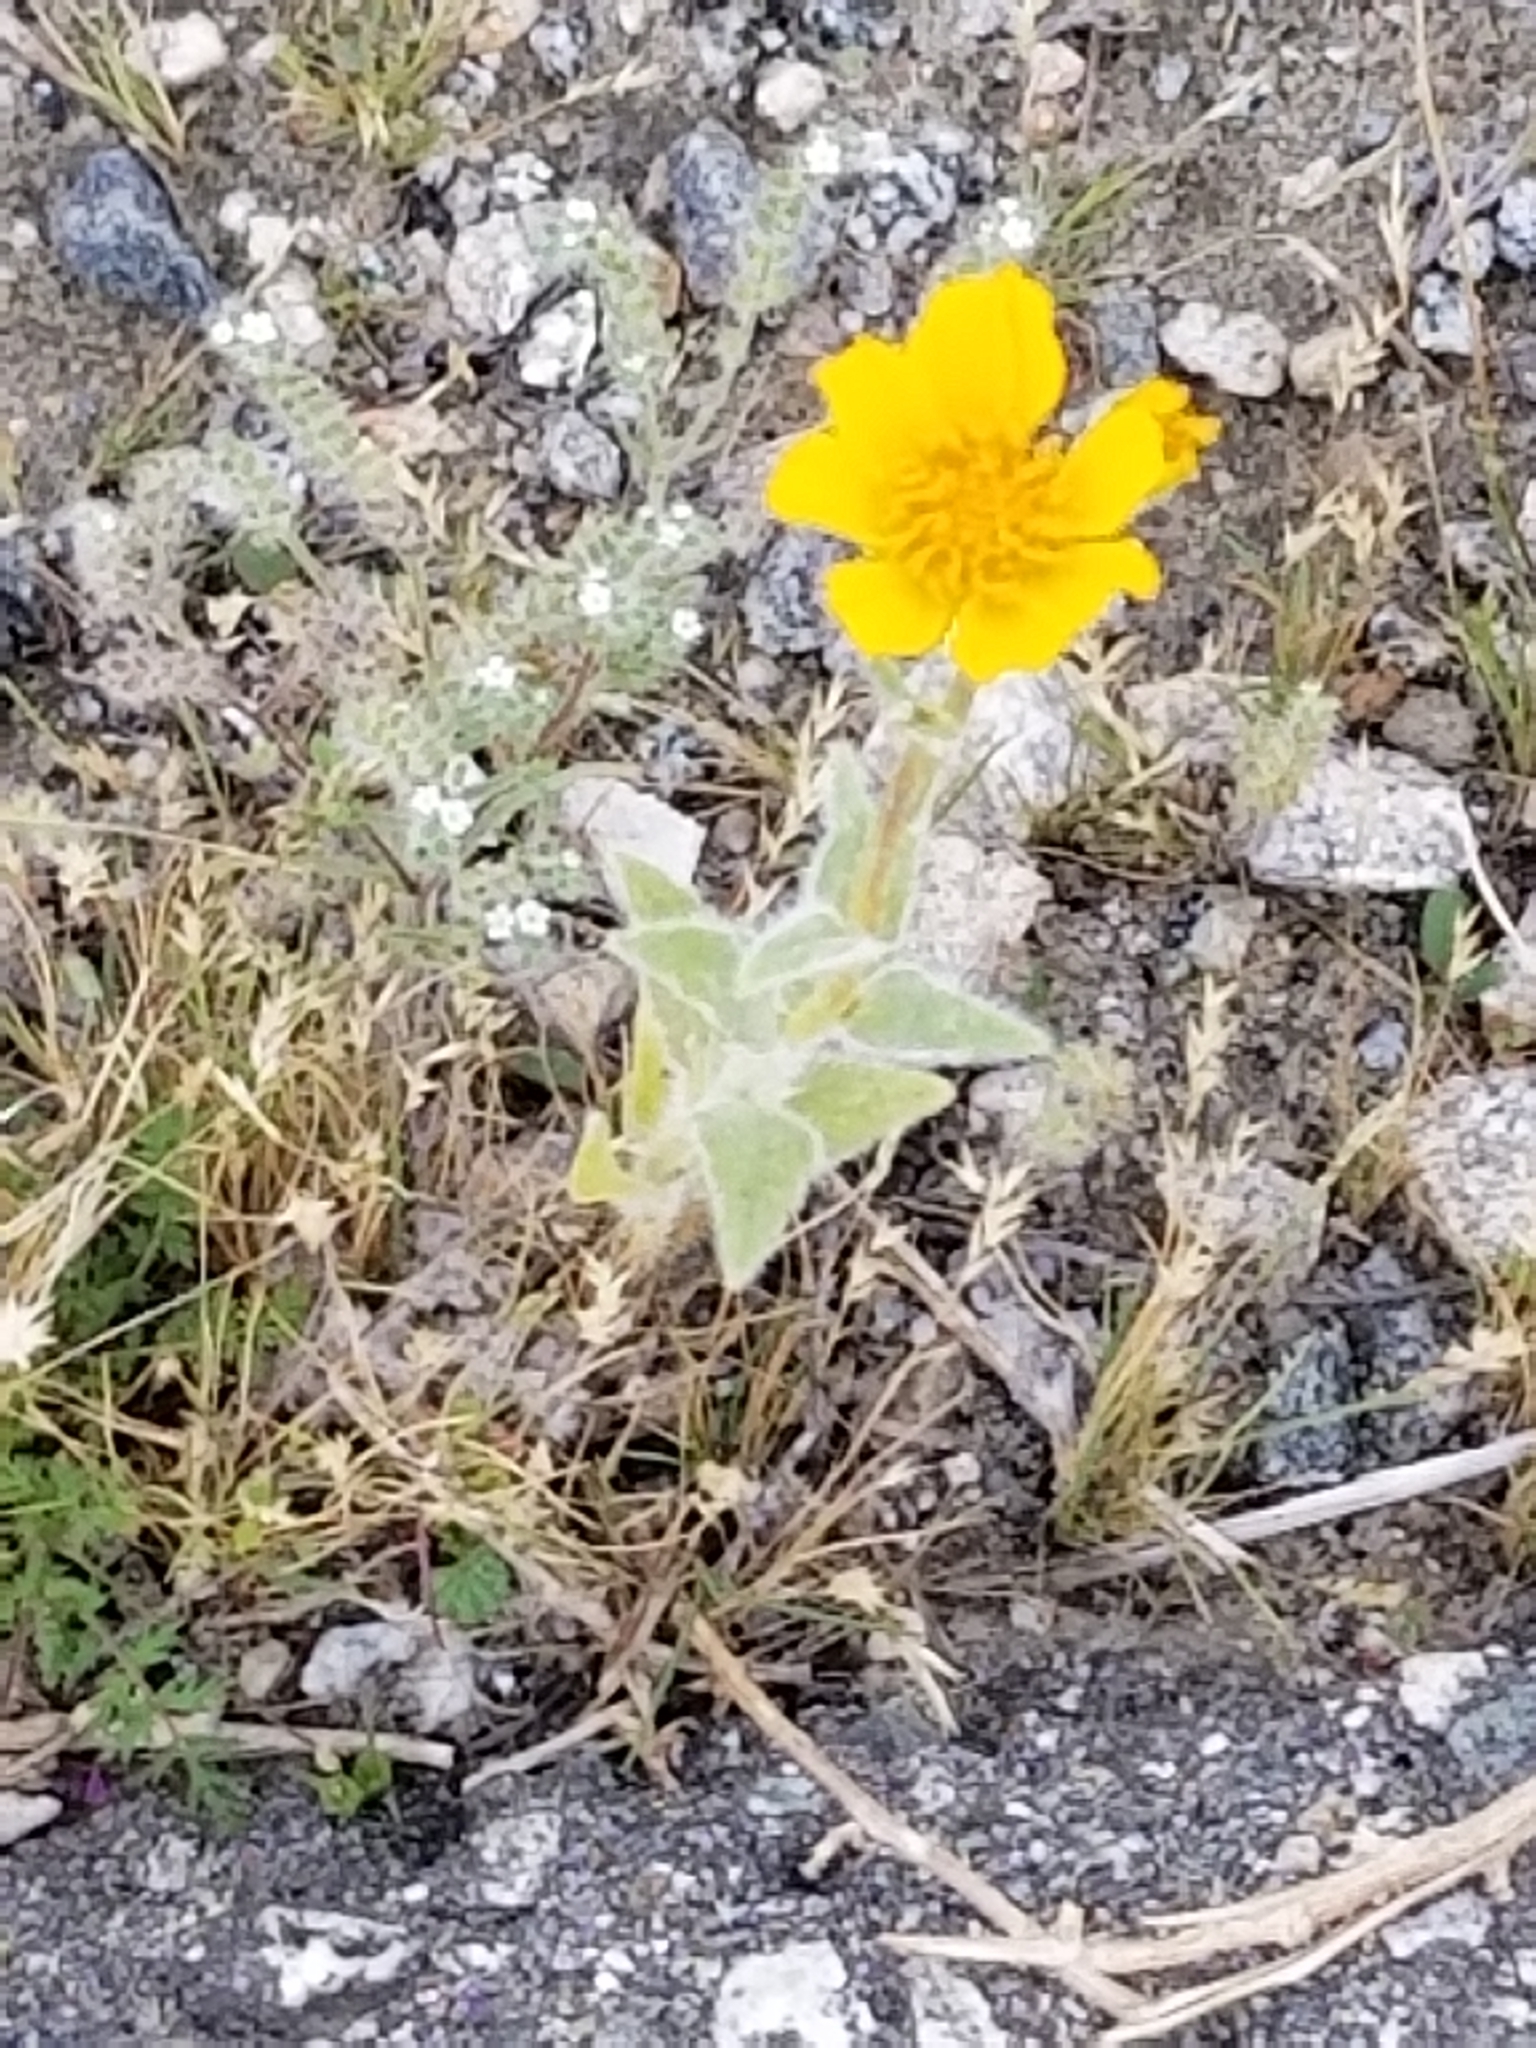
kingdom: Plantae
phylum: Tracheophyta
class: Magnoliopsida
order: Asterales
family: Asteraceae
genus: Geraea
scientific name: Geraea canescens
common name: Desert-gold
